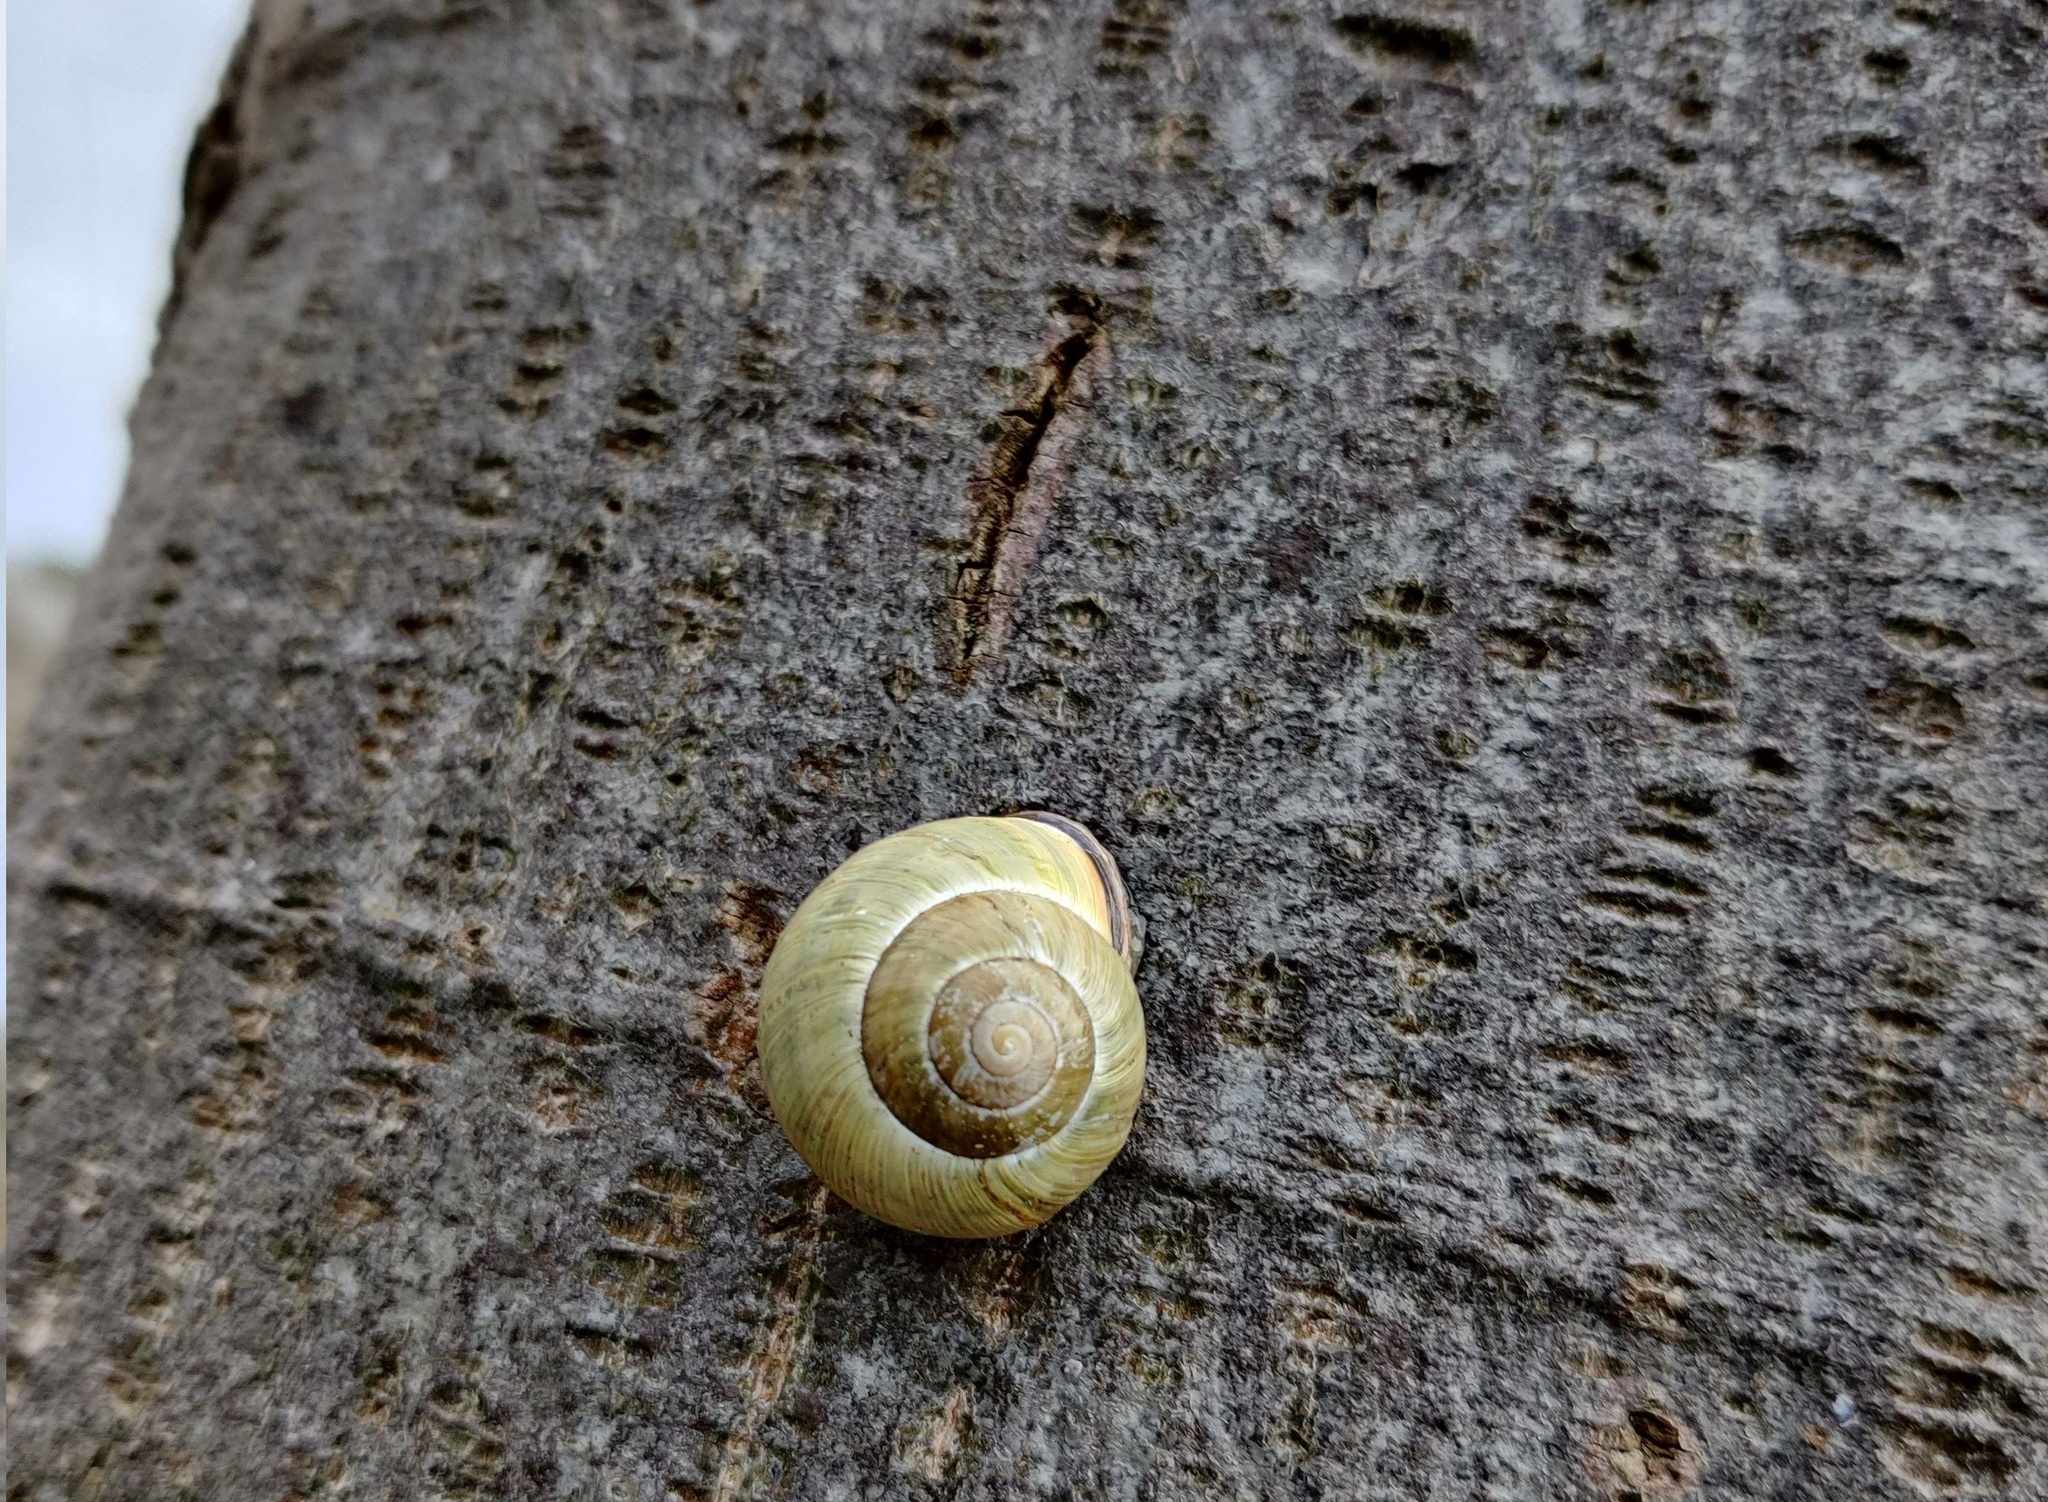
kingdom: Animalia
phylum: Mollusca
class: Gastropoda
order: Stylommatophora
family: Helicidae
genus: Cepaea
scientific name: Cepaea nemoralis
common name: Grovesnail
